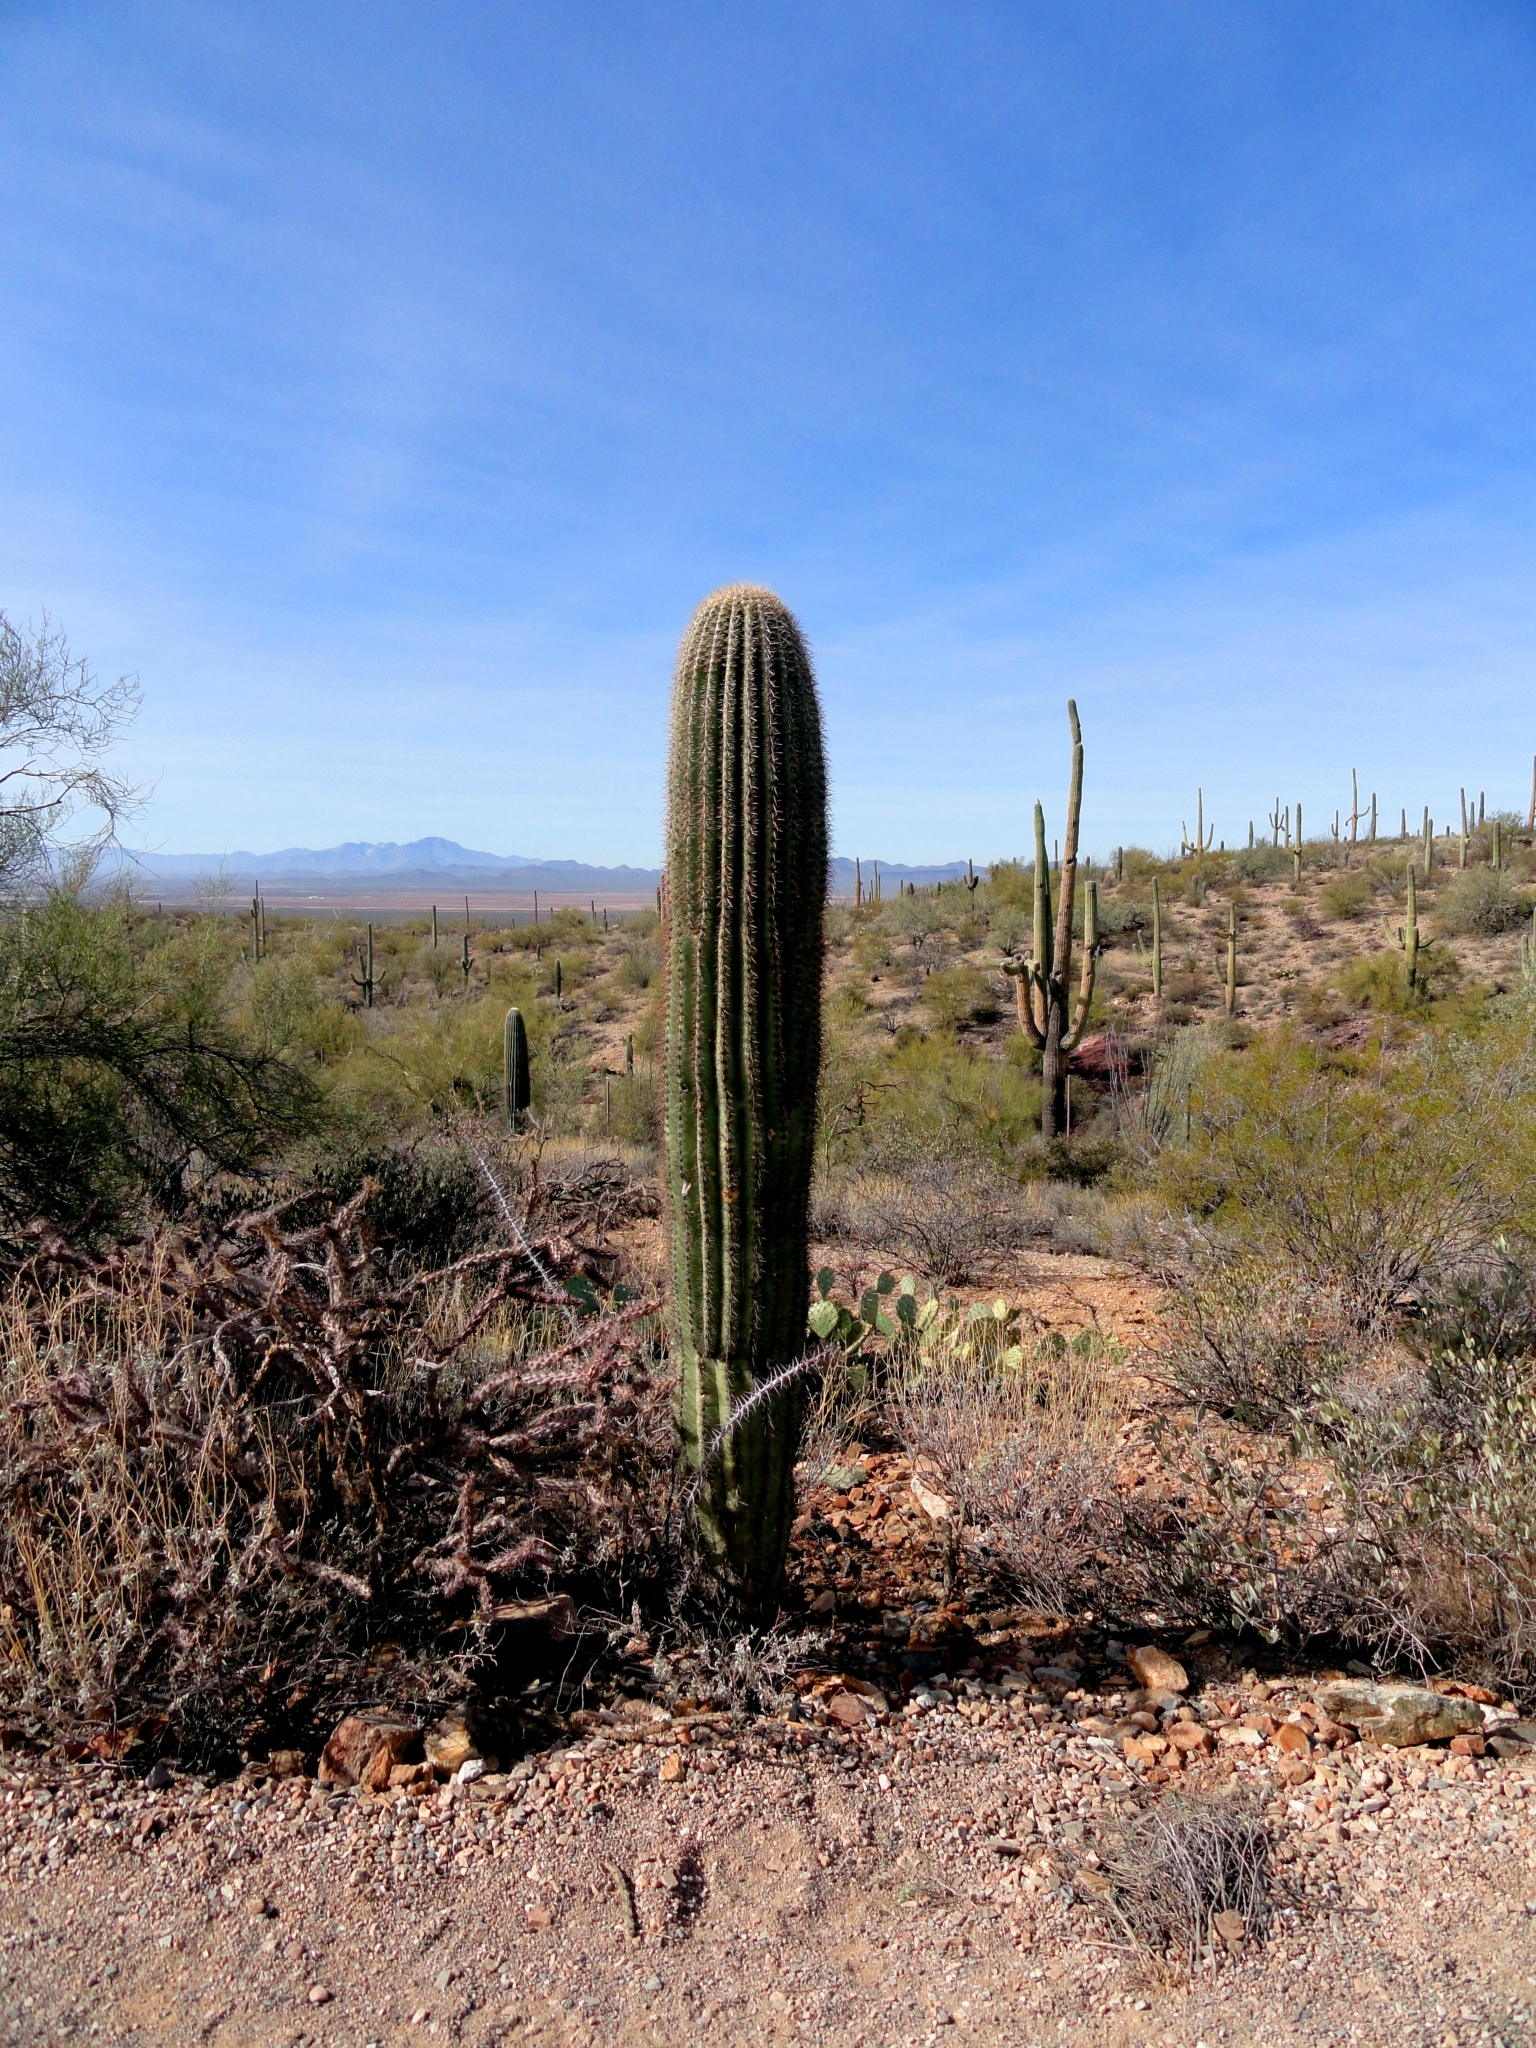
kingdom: Plantae
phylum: Tracheophyta
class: Magnoliopsida
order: Caryophyllales
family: Cactaceae
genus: Carnegiea
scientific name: Carnegiea gigantea
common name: Saguaro
